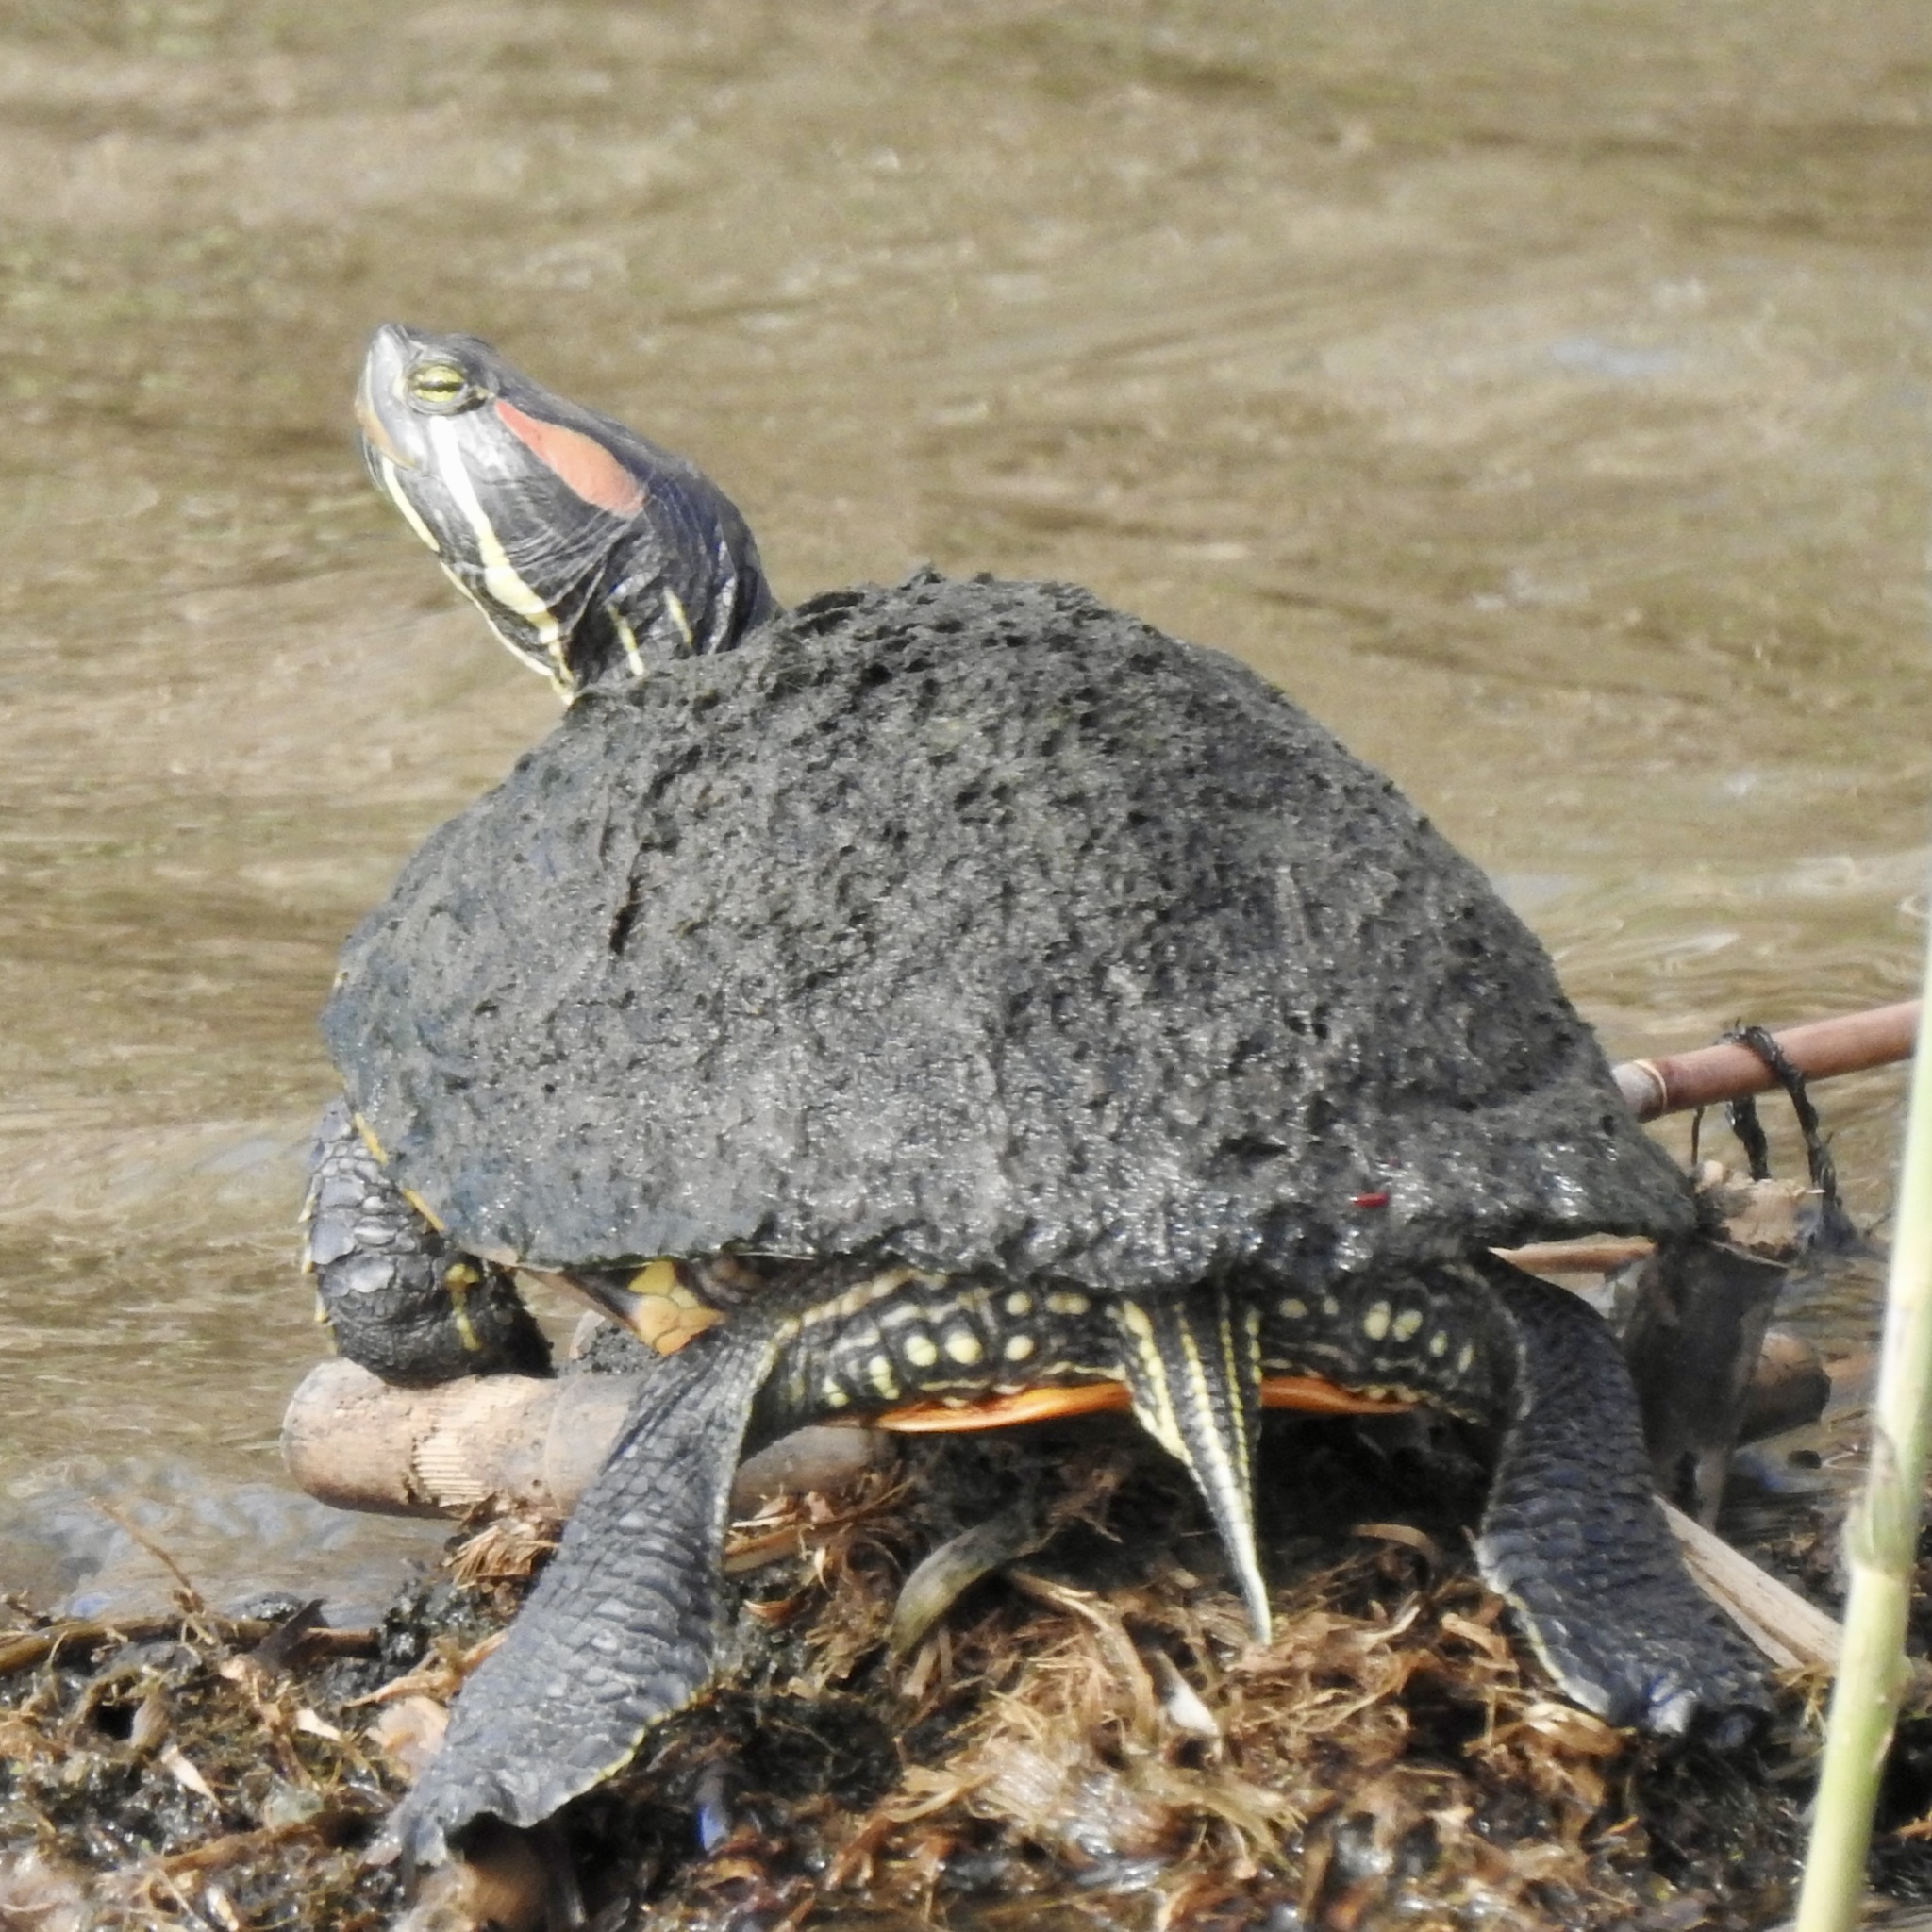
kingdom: Animalia
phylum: Chordata
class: Testudines
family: Emydidae
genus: Trachemys
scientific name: Trachemys scripta
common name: Slider
